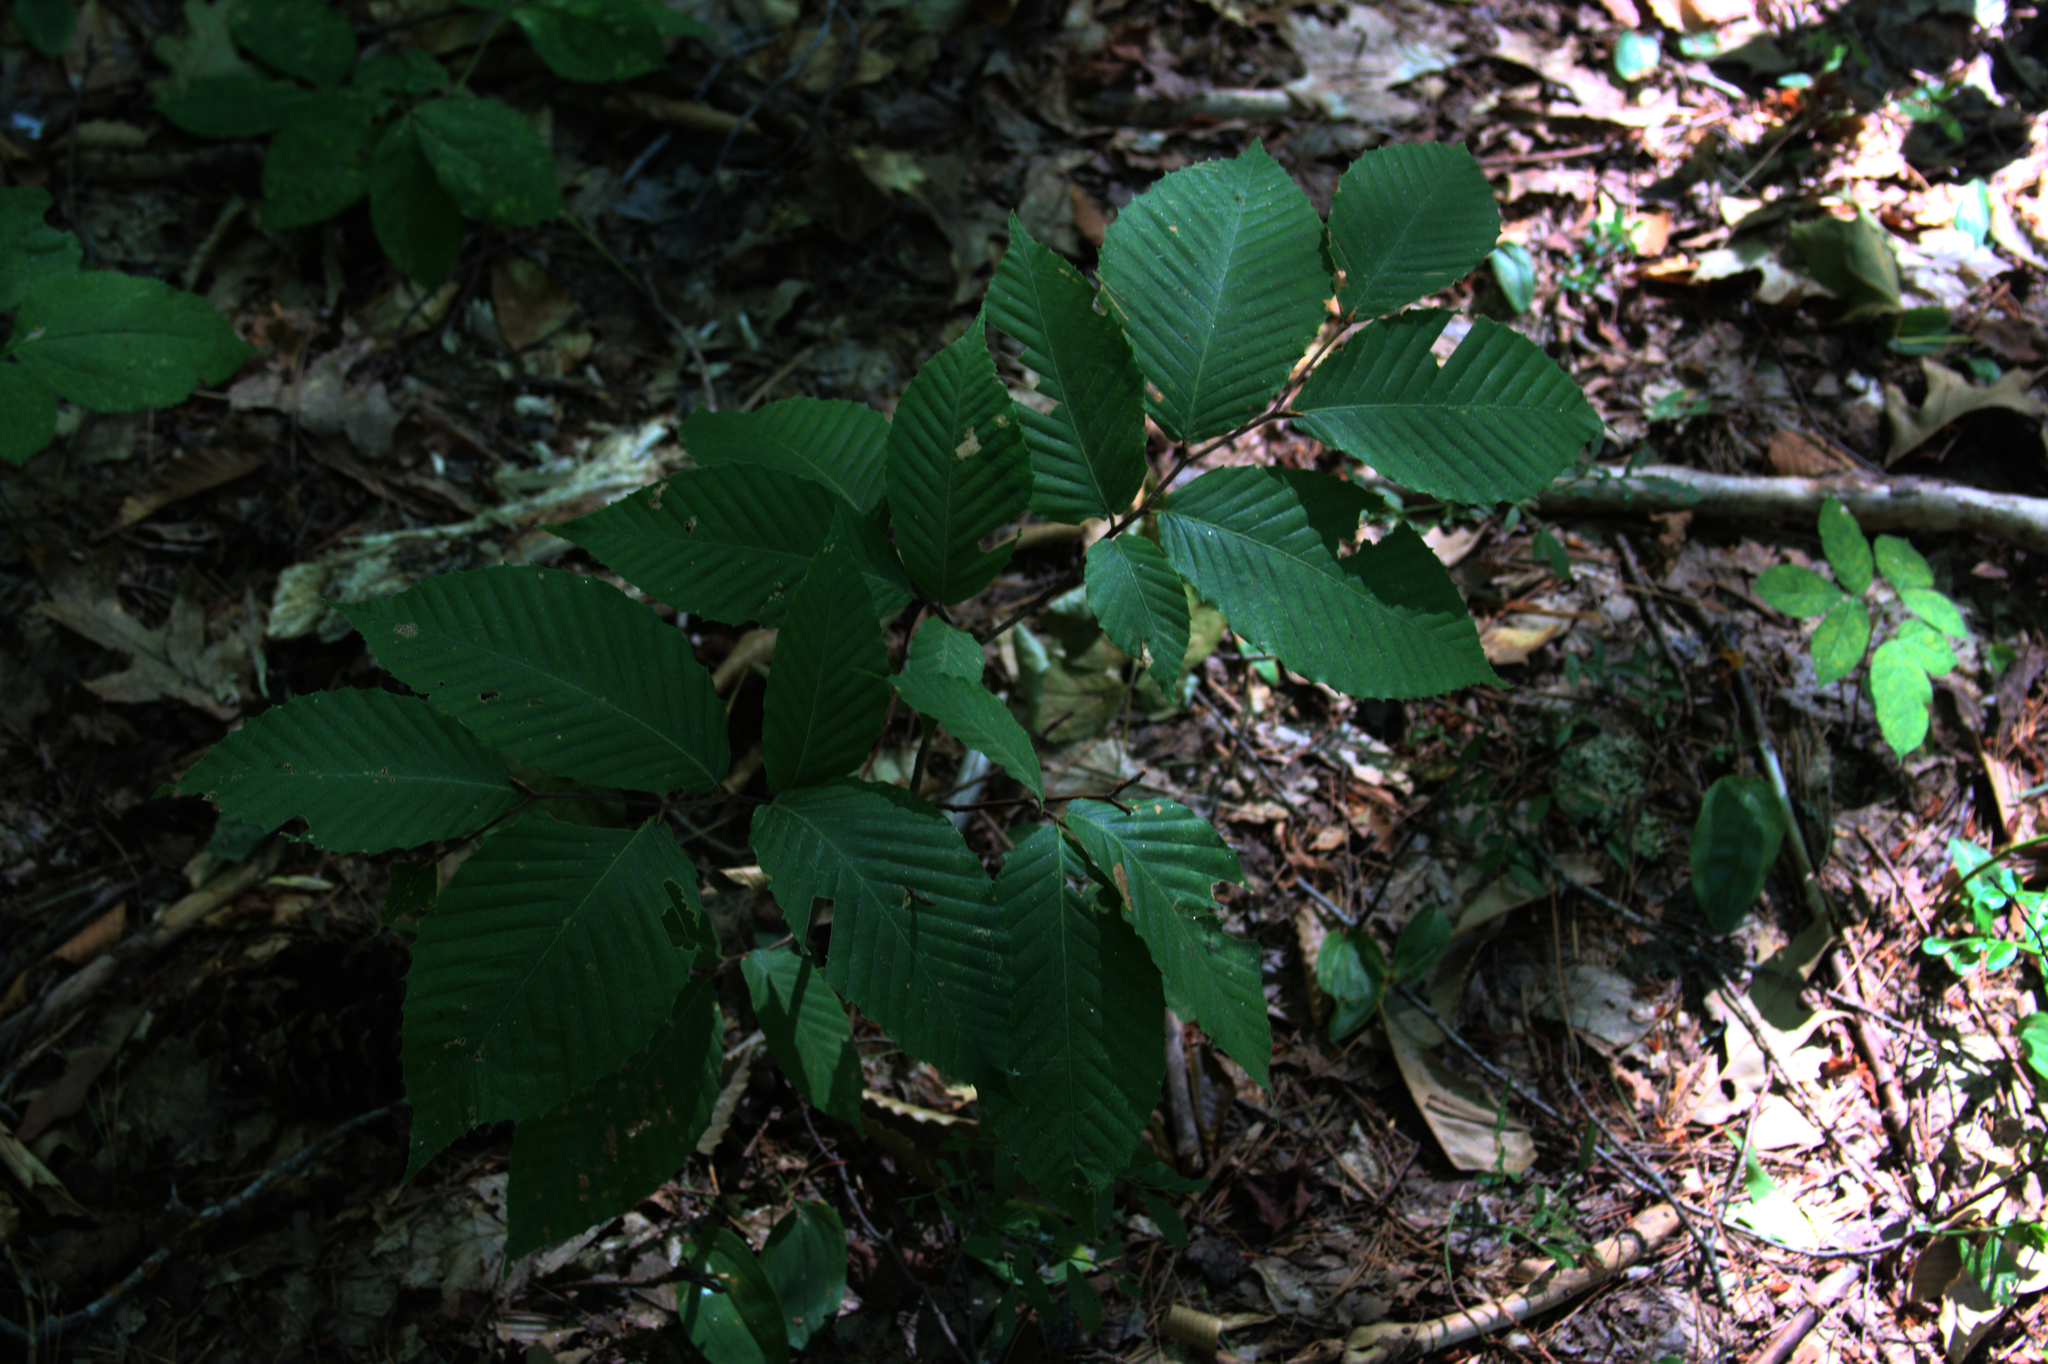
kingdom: Plantae
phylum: Tracheophyta
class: Magnoliopsida
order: Fagales
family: Fagaceae
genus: Fagus
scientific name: Fagus grandifolia
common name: American beech
